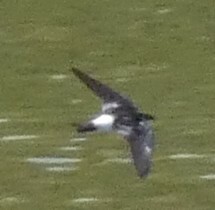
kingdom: Animalia
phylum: Chordata
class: Aves
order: Passeriformes
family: Hirundinidae
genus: Tachycineta
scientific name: Tachycineta albiventer
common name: White-winged swallow
